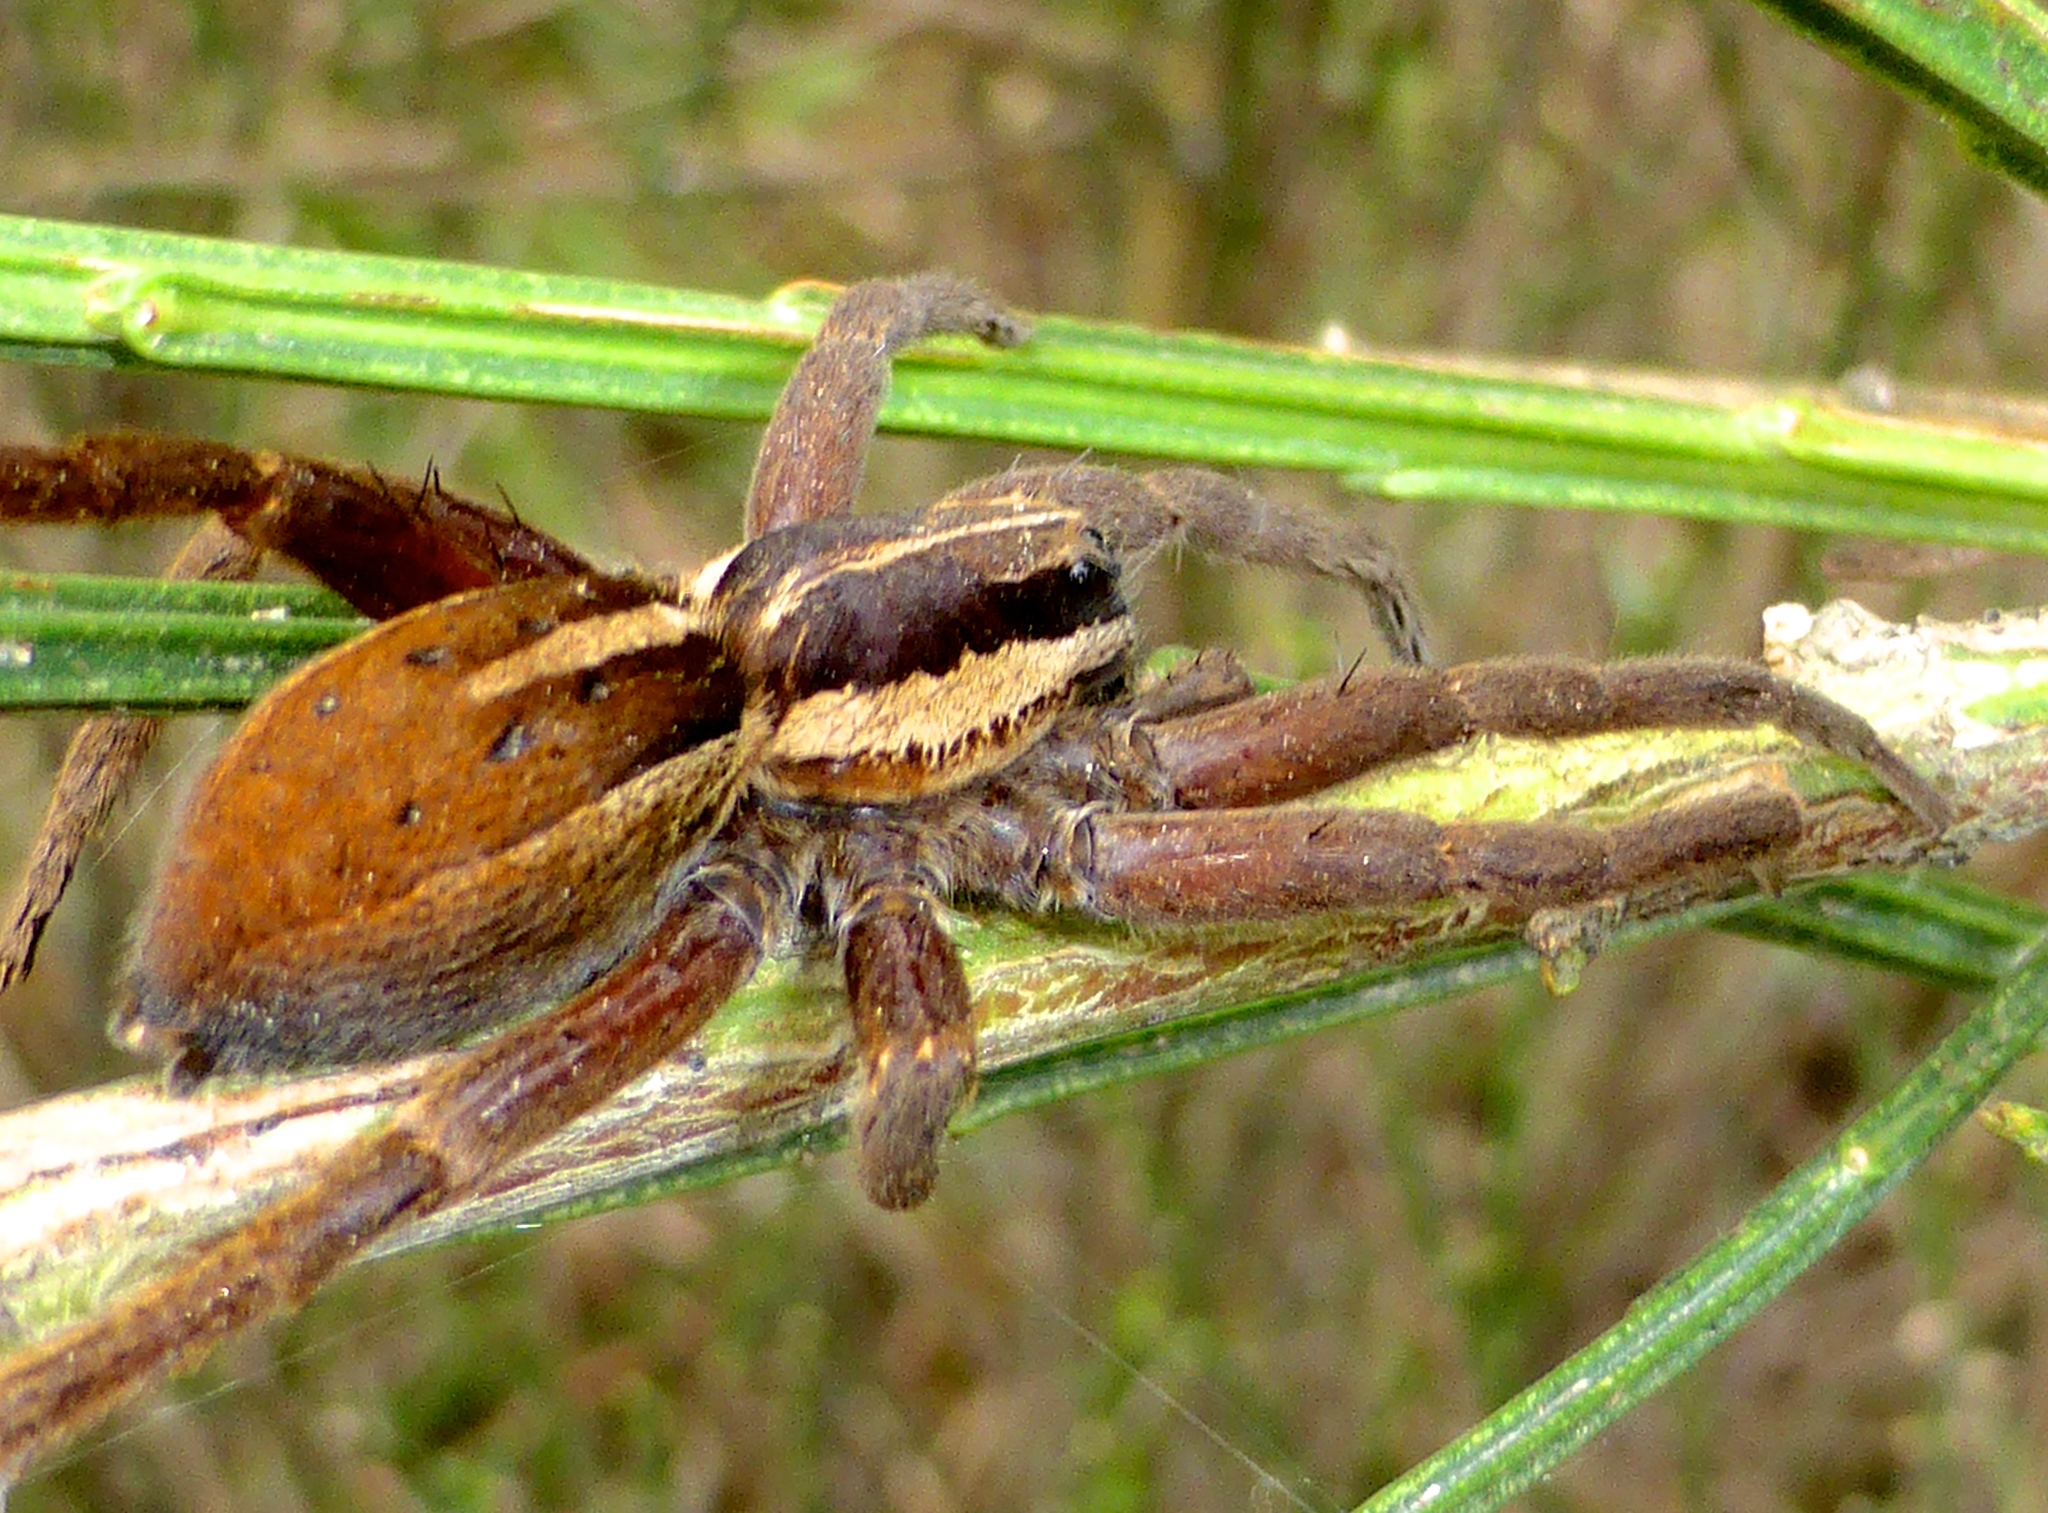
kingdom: Animalia
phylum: Arthropoda
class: Arachnida
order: Araneae
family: Pisauridae
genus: Dolomedes
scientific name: Dolomedes minor
